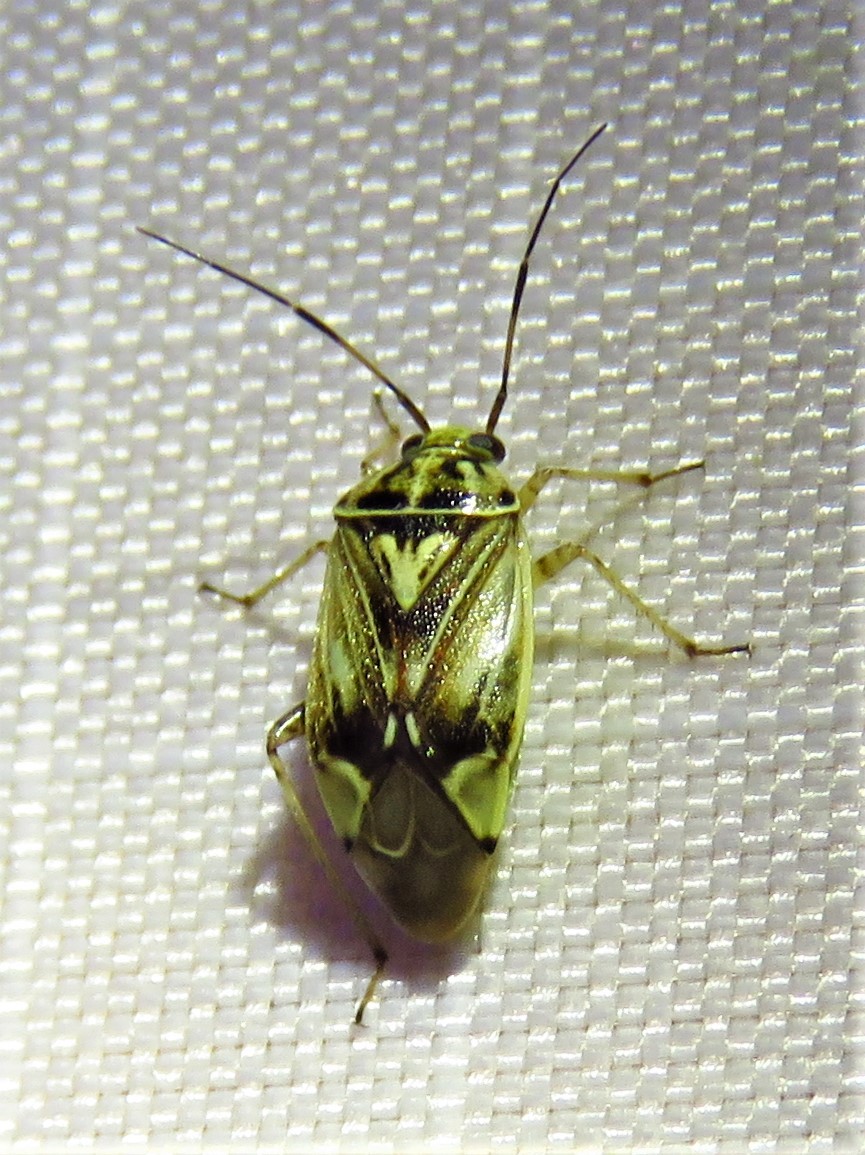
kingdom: Animalia
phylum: Arthropoda
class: Insecta
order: Hemiptera
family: Miridae
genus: Lygus
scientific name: Lygus lineolaris
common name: North american tarnished plant bug
